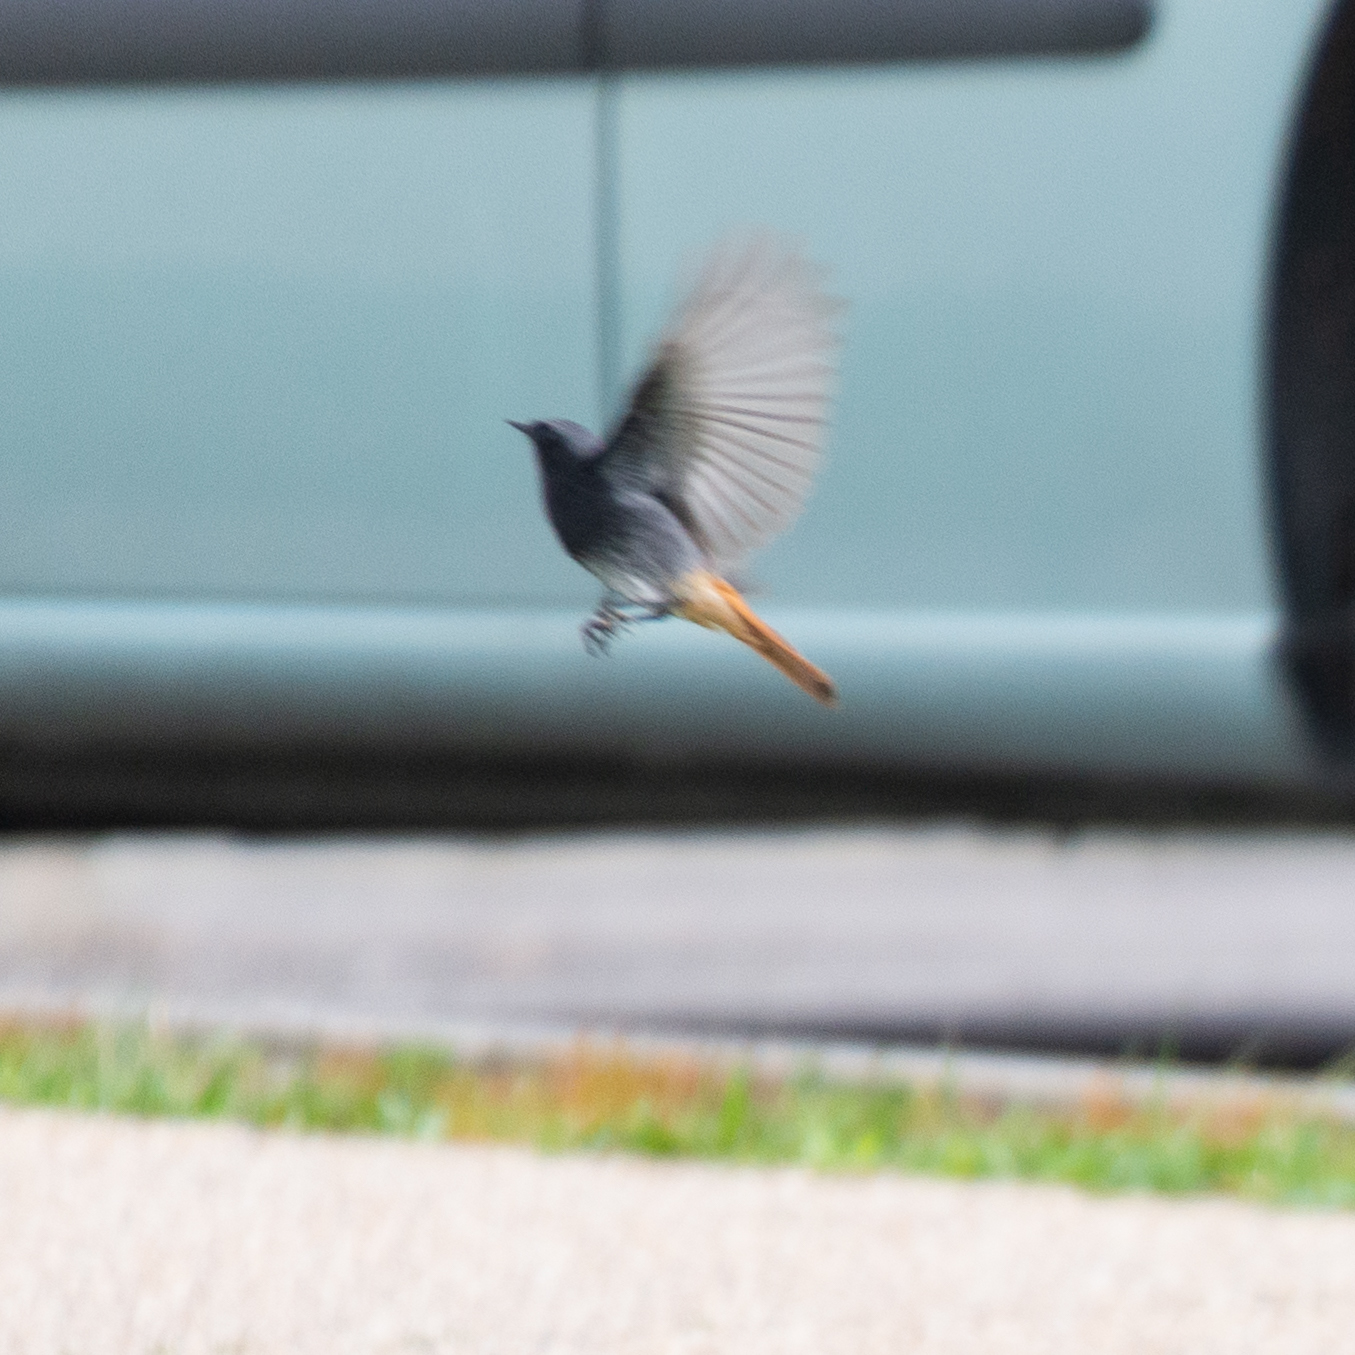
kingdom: Animalia
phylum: Chordata
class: Aves
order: Passeriformes
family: Muscicapidae
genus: Phoenicurus
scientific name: Phoenicurus ochruros
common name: Black redstart
